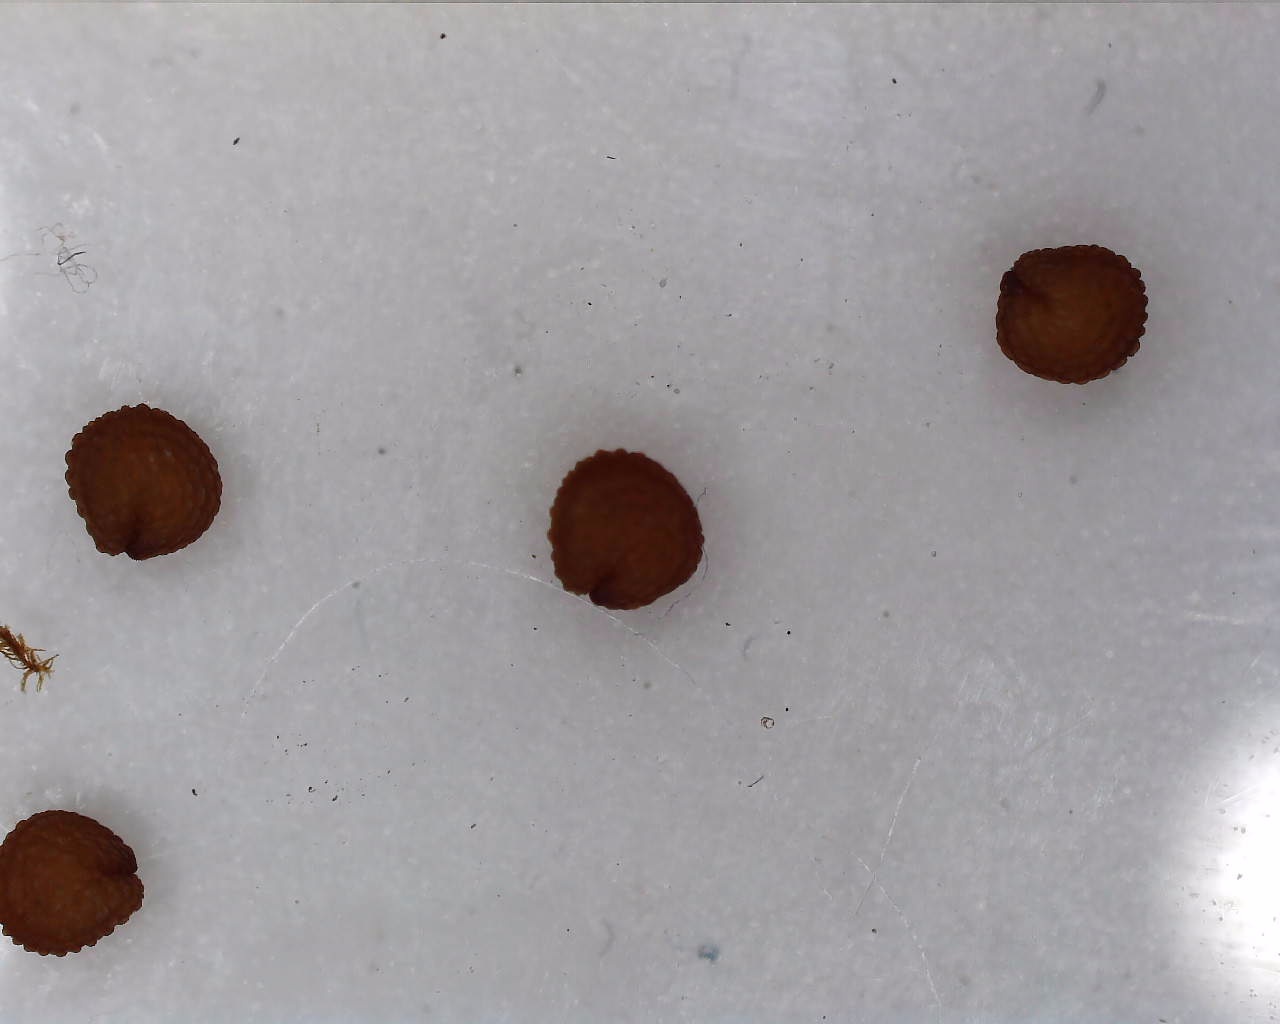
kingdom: Plantae
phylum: Tracheophyta
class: Magnoliopsida
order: Caryophyllales
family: Caryophyllaceae
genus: Stellaria
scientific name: Stellaria media
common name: Common chickweed
